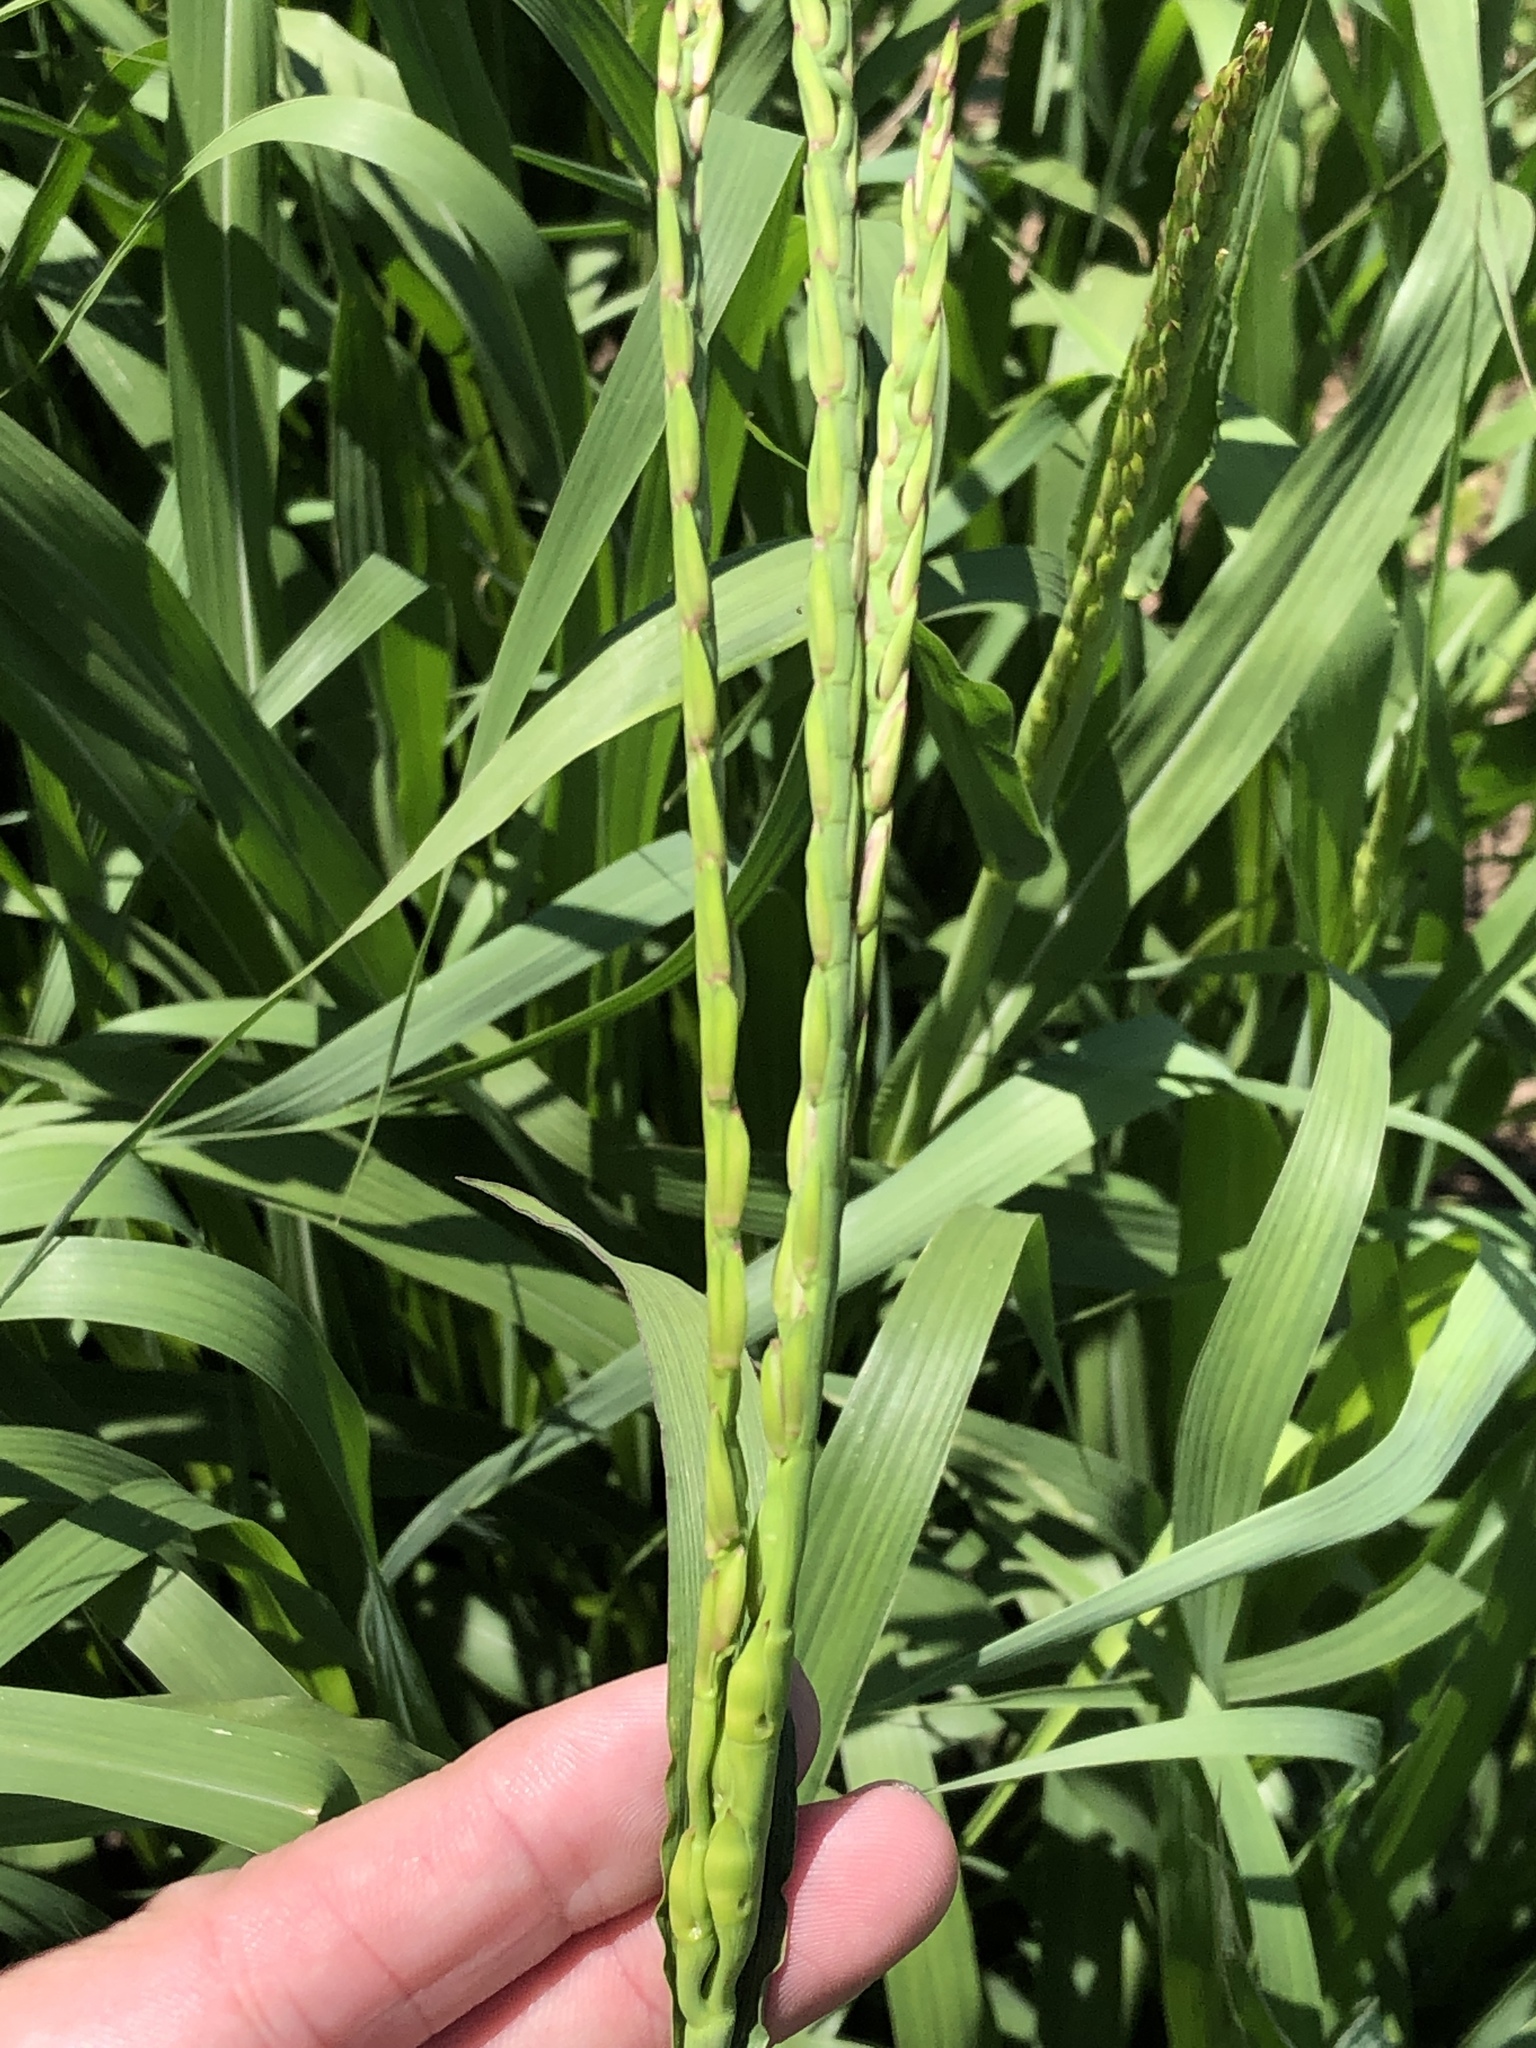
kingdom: Plantae
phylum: Tracheophyta
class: Liliopsida
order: Poales
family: Poaceae
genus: Tripsacum
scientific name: Tripsacum dactyloides
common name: Buffalo-grass
